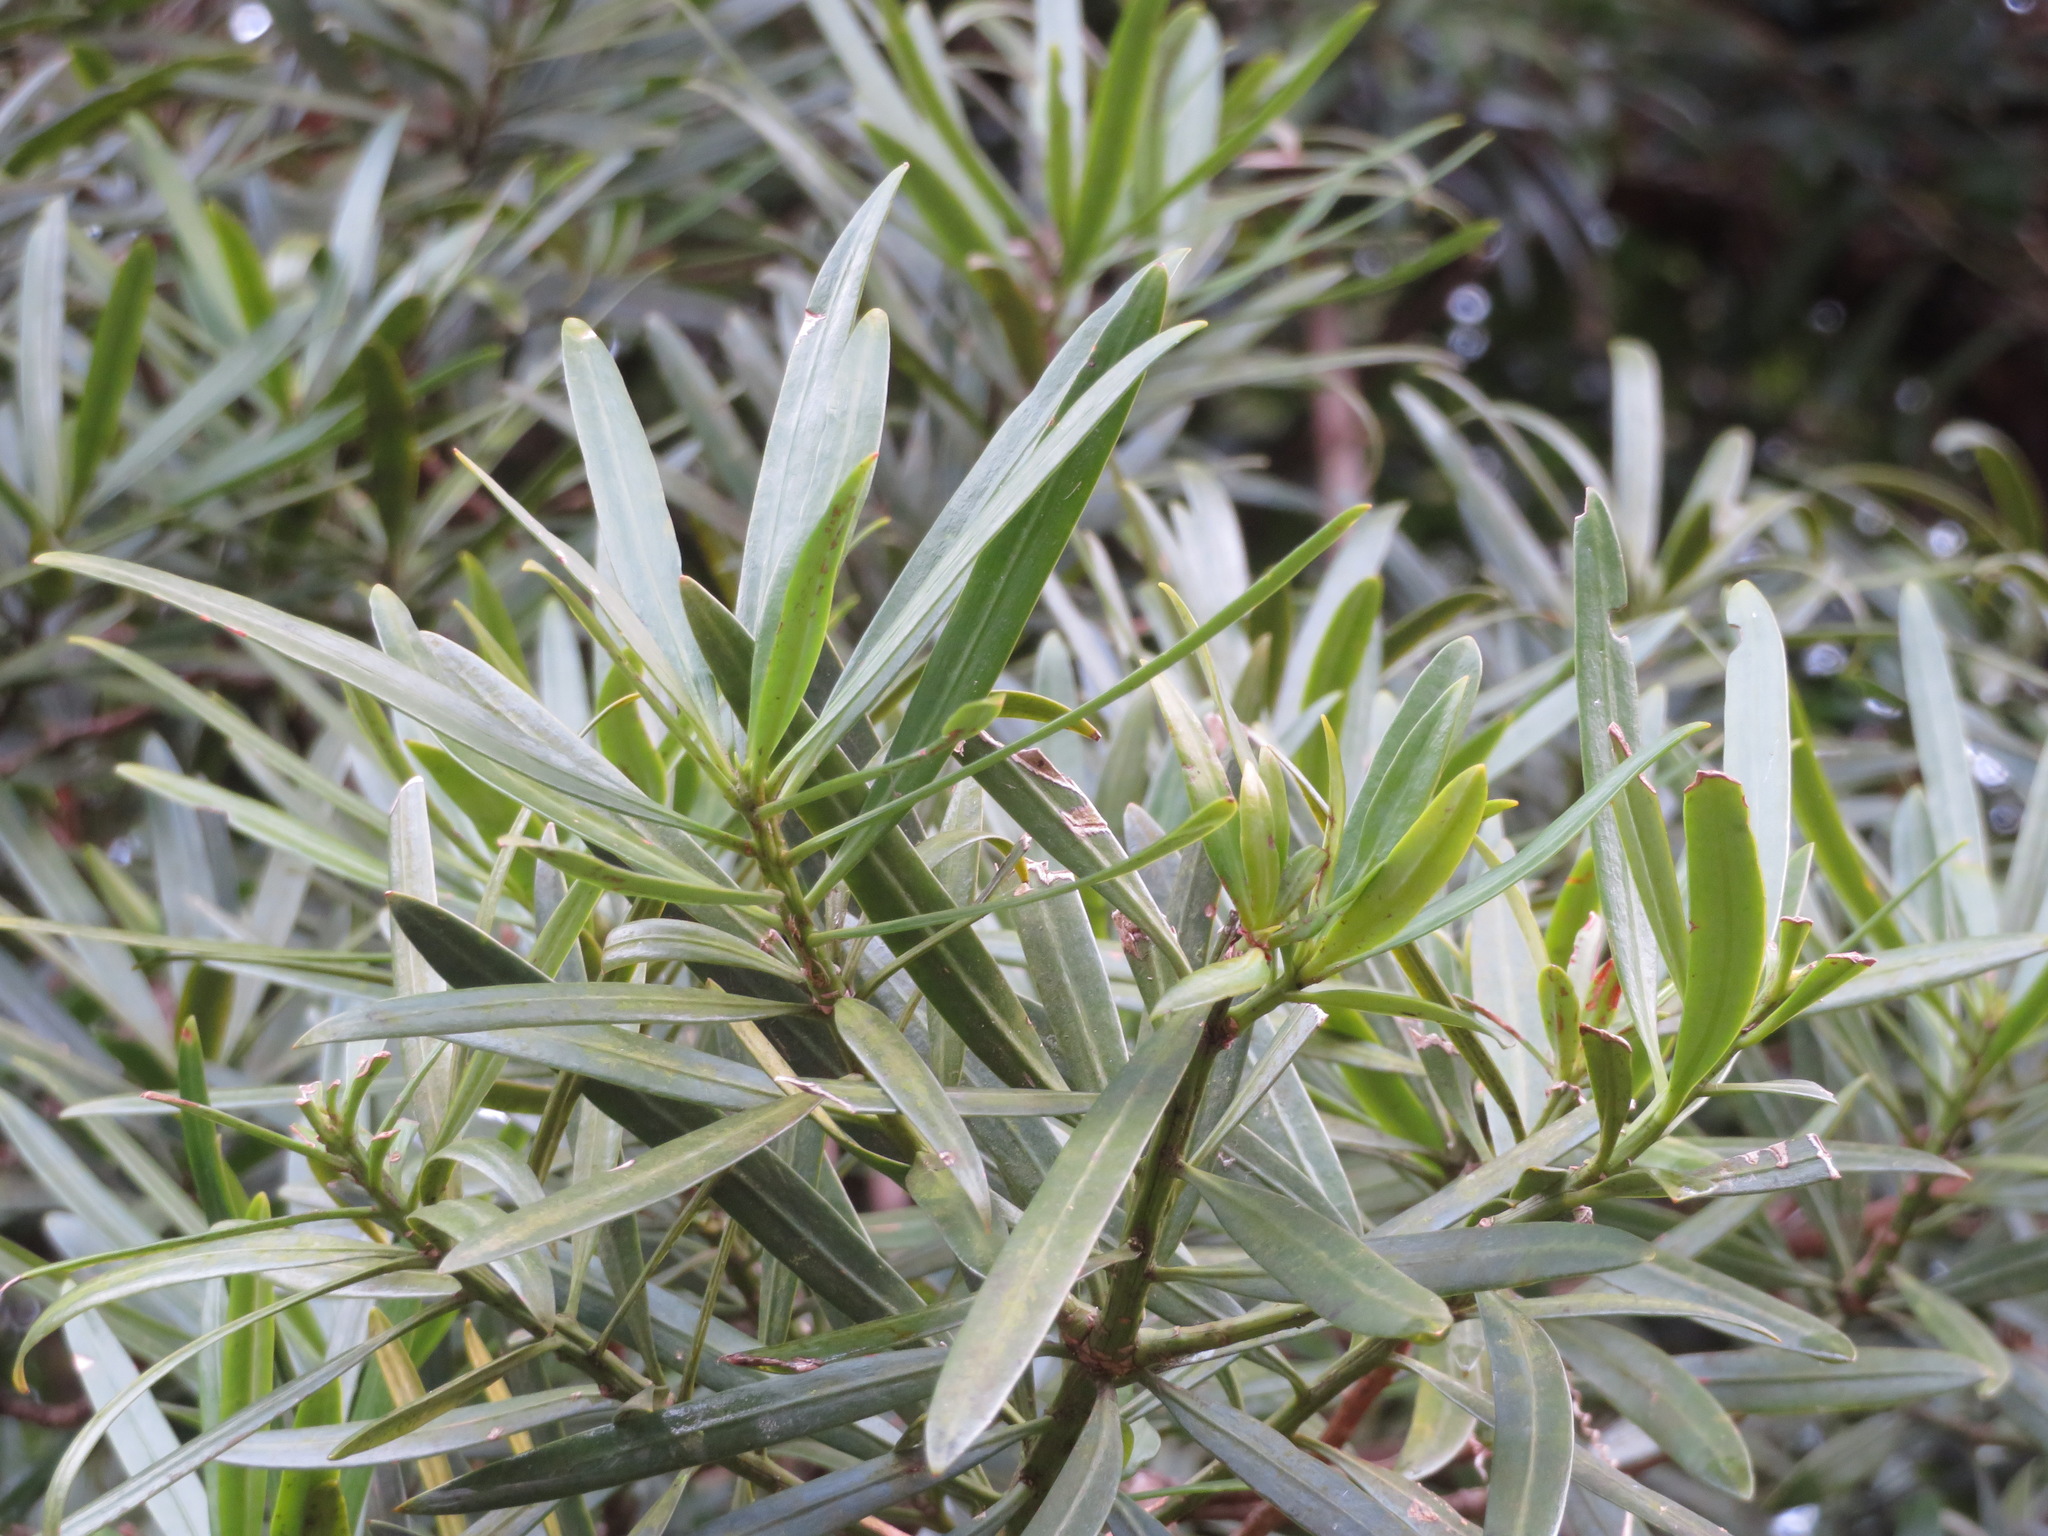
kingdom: Plantae
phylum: Tracheophyta
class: Pinopsida
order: Pinales
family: Podocarpaceae
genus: Podocarpus
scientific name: Podocarpus macrophyllus
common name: Japanese yew
